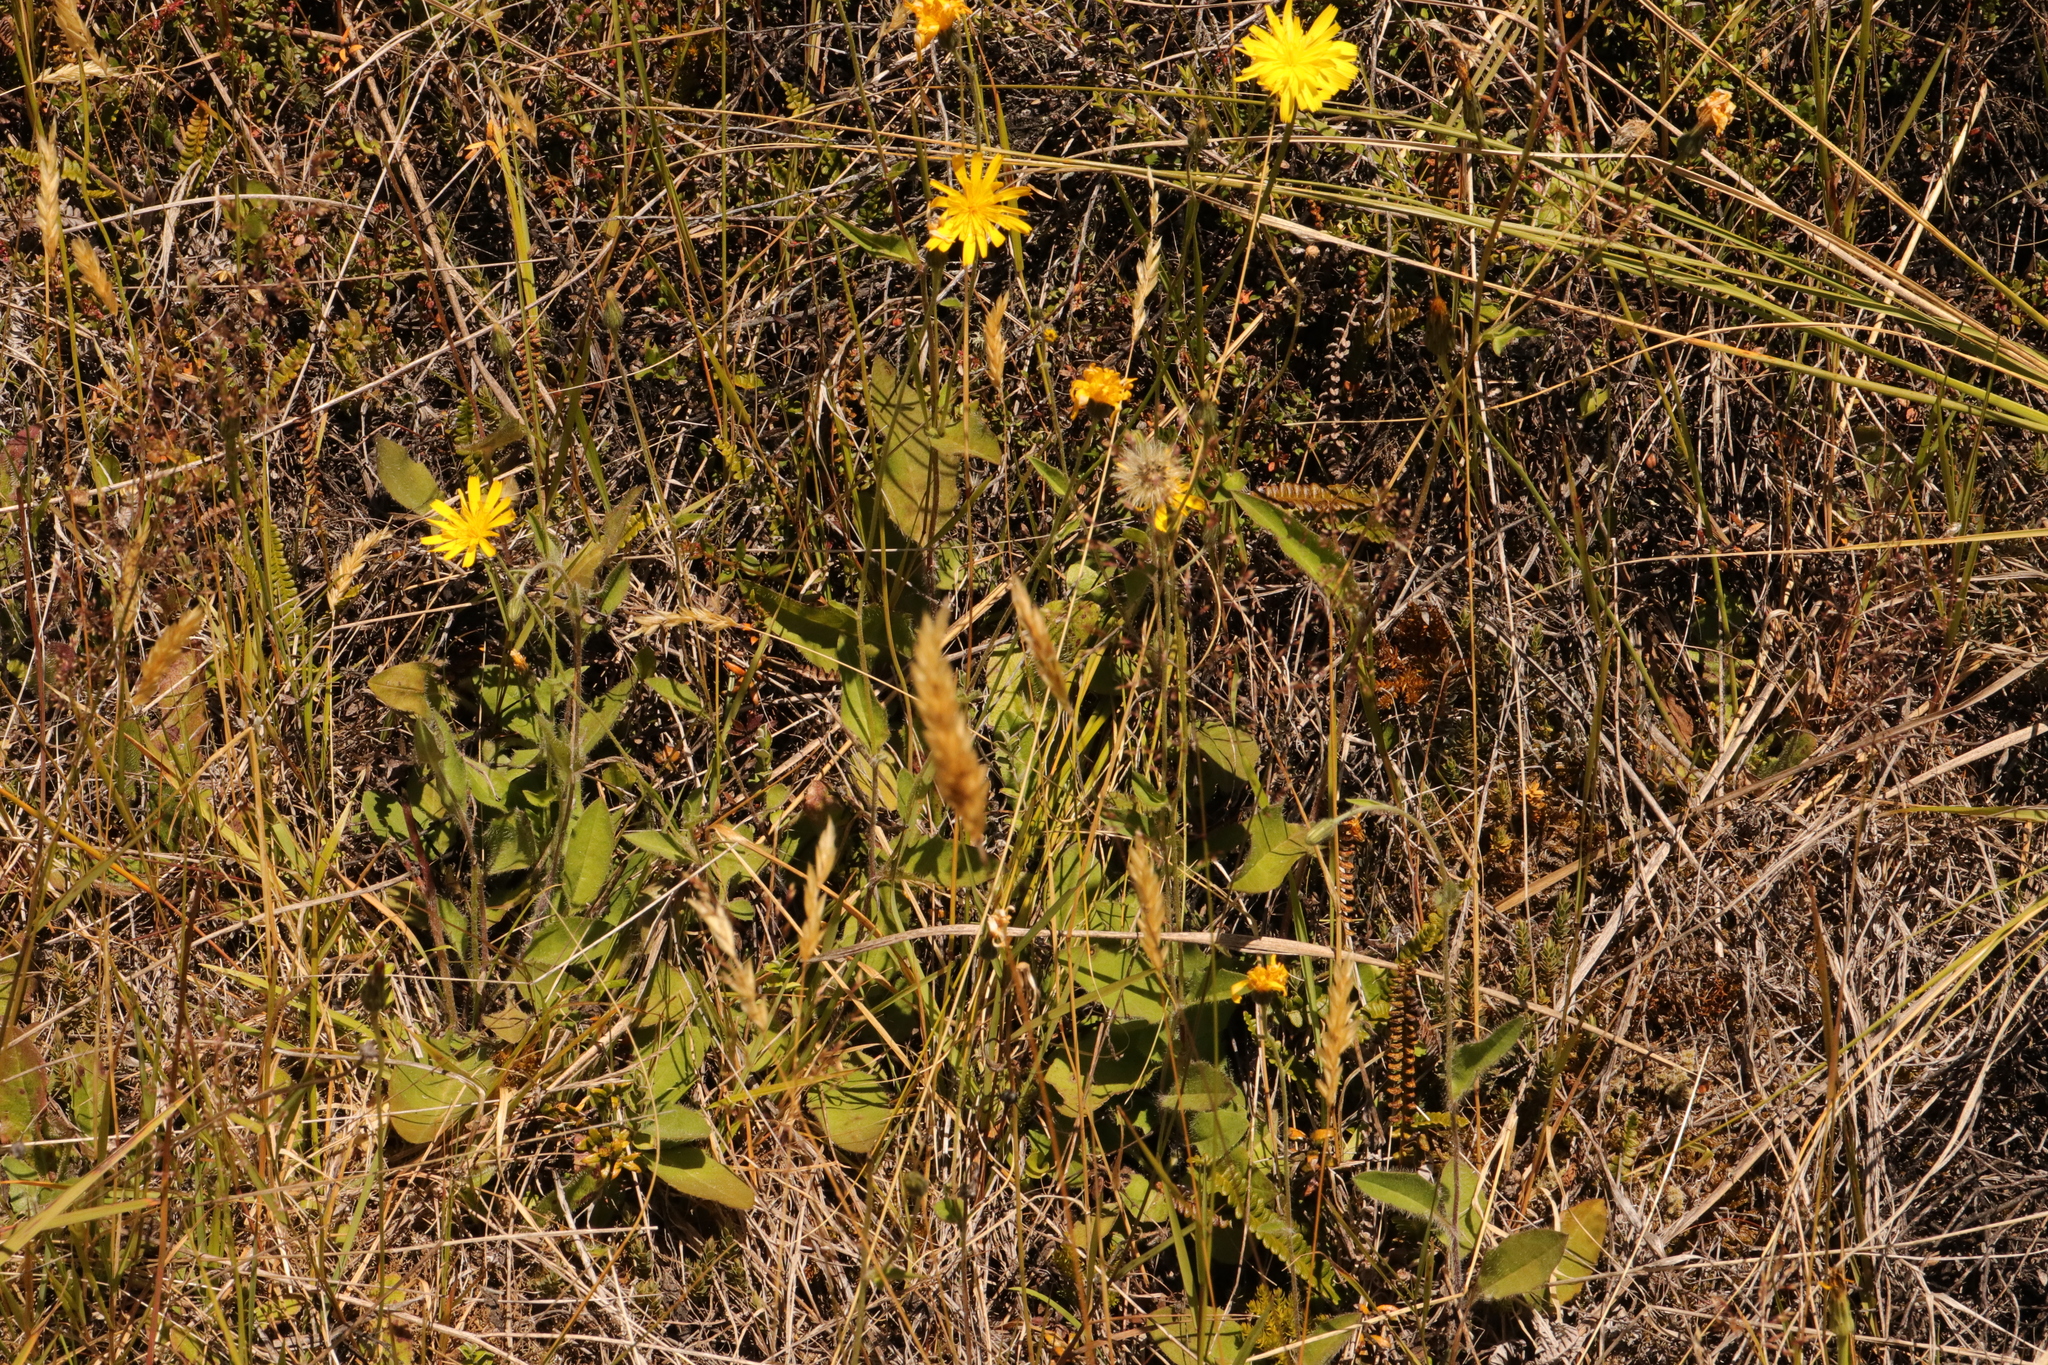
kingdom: Plantae
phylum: Tracheophyta
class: Magnoliopsida
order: Asterales
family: Asteraceae
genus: Hieracium
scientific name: Hieracium lepidulum
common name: Irregular-toothed hawkweed
